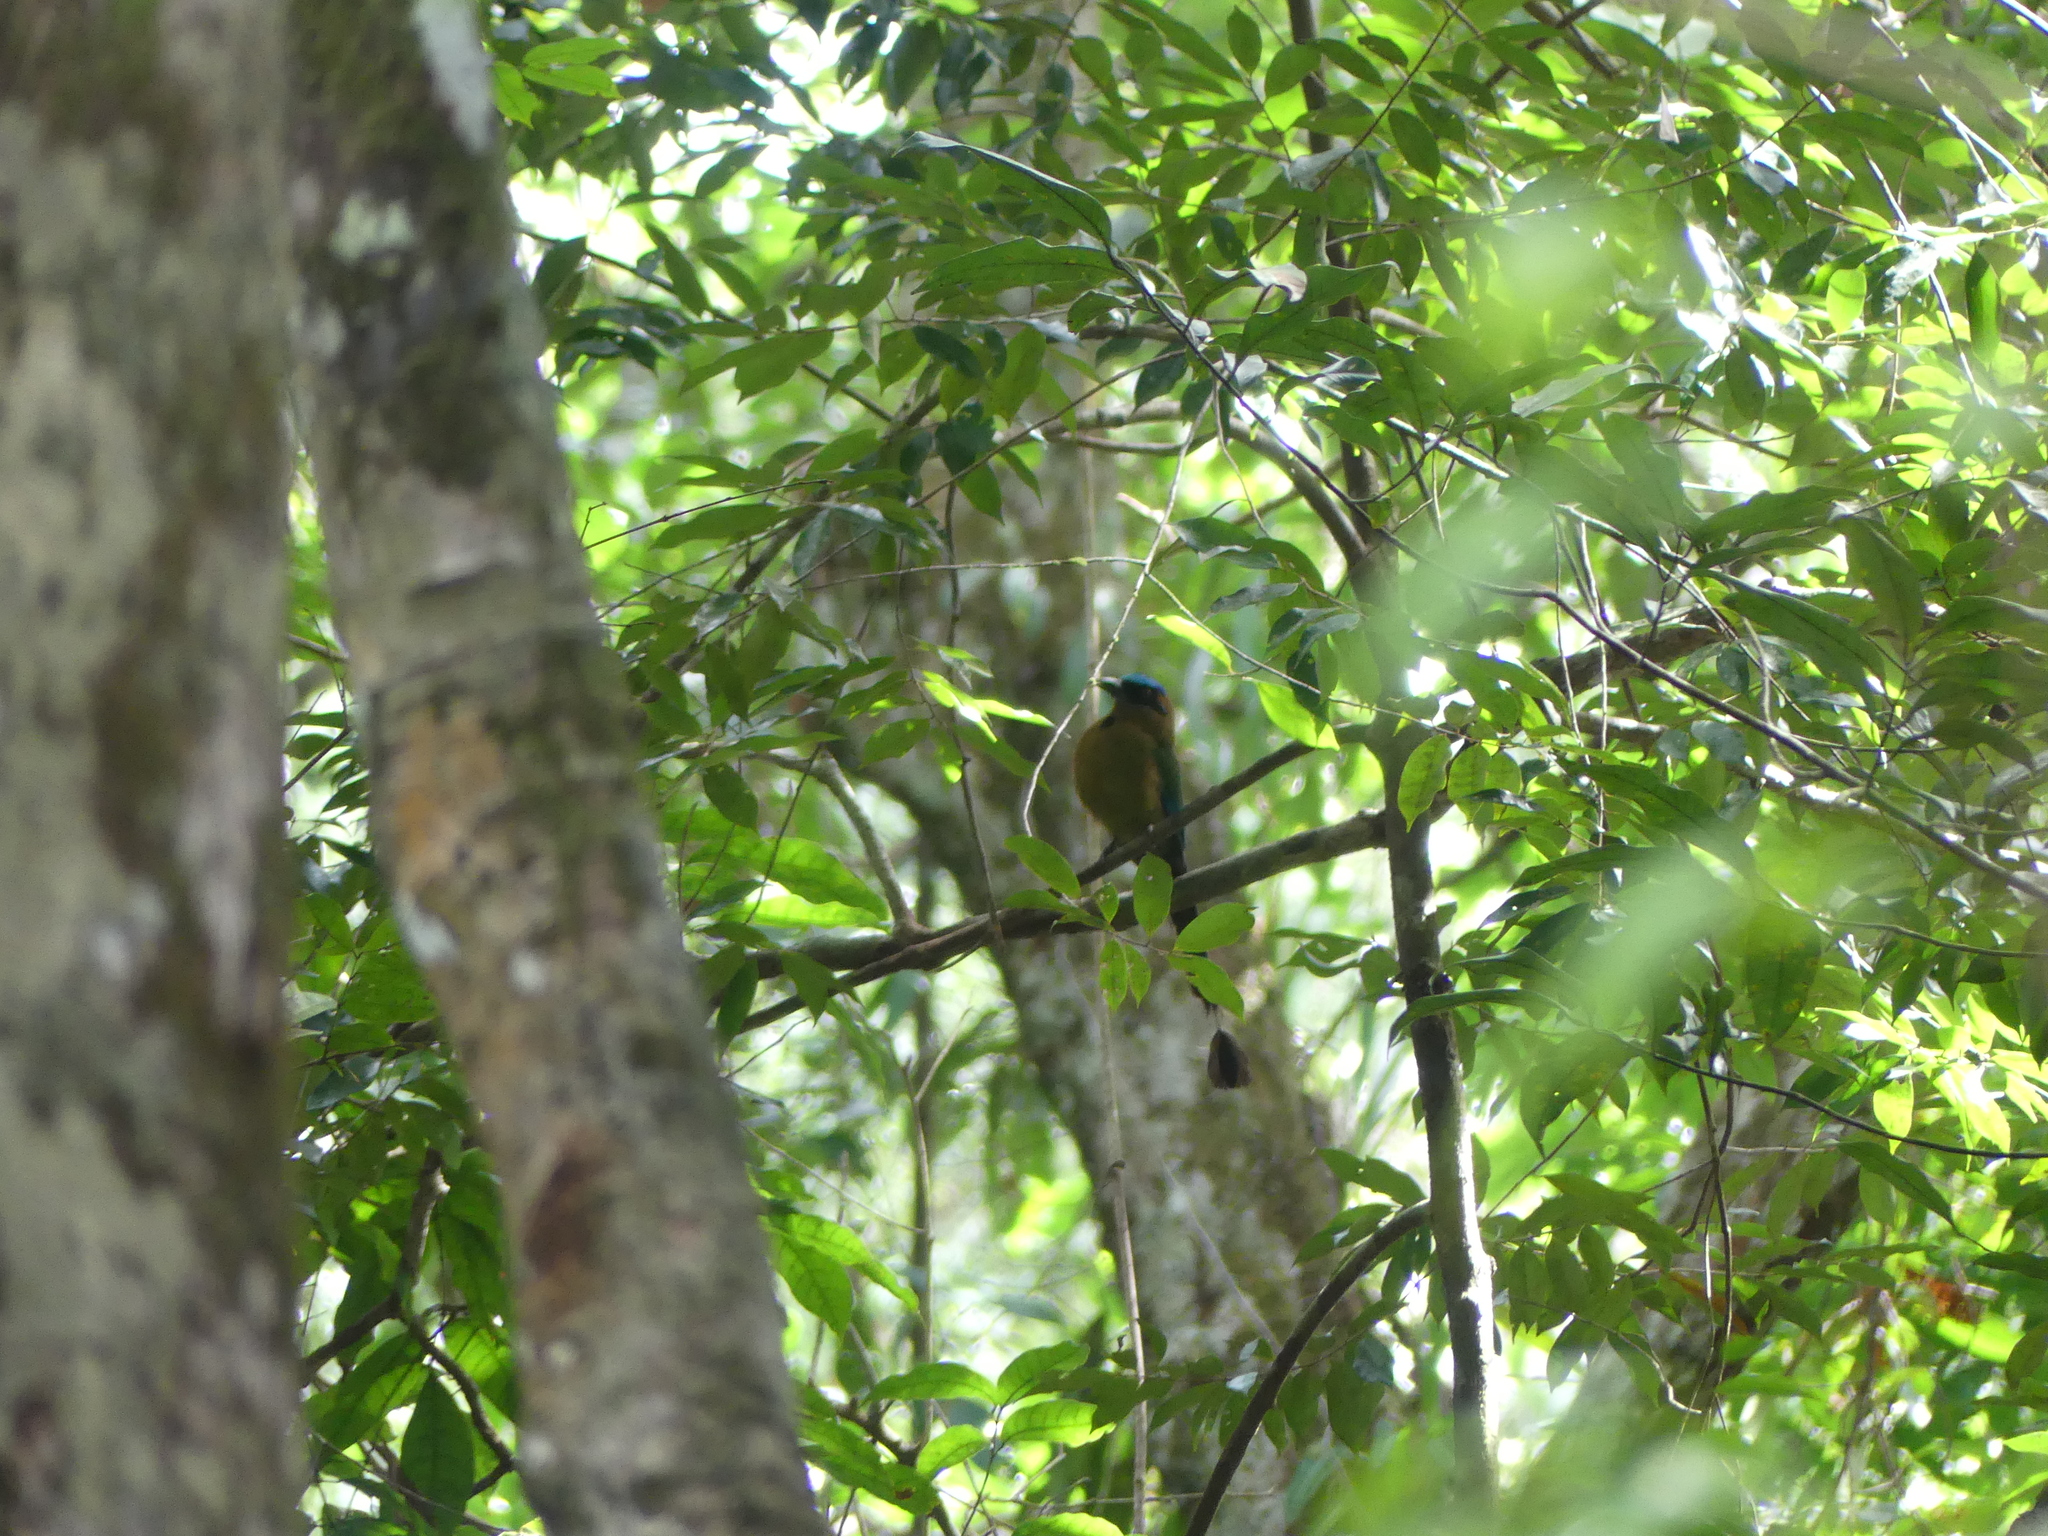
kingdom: Animalia
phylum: Chordata
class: Aves
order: Coraciiformes
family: Momotidae
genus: Momotus
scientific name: Momotus momota
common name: Amazonian motmot
